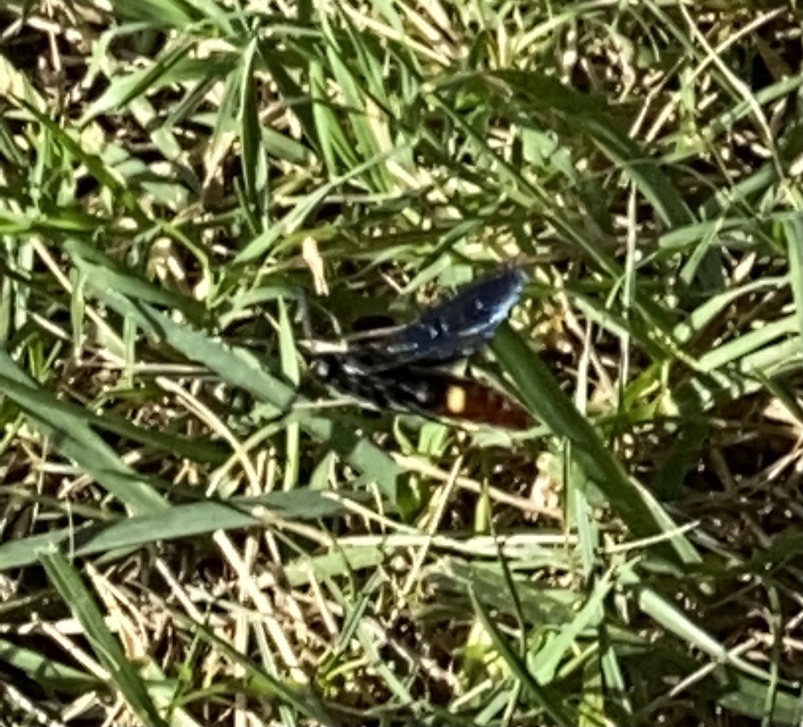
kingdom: Animalia
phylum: Arthropoda
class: Insecta
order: Hymenoptera
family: Scoliidae
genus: Scolia
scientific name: Scolia dubia
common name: Blue-winged scoliid wasp
